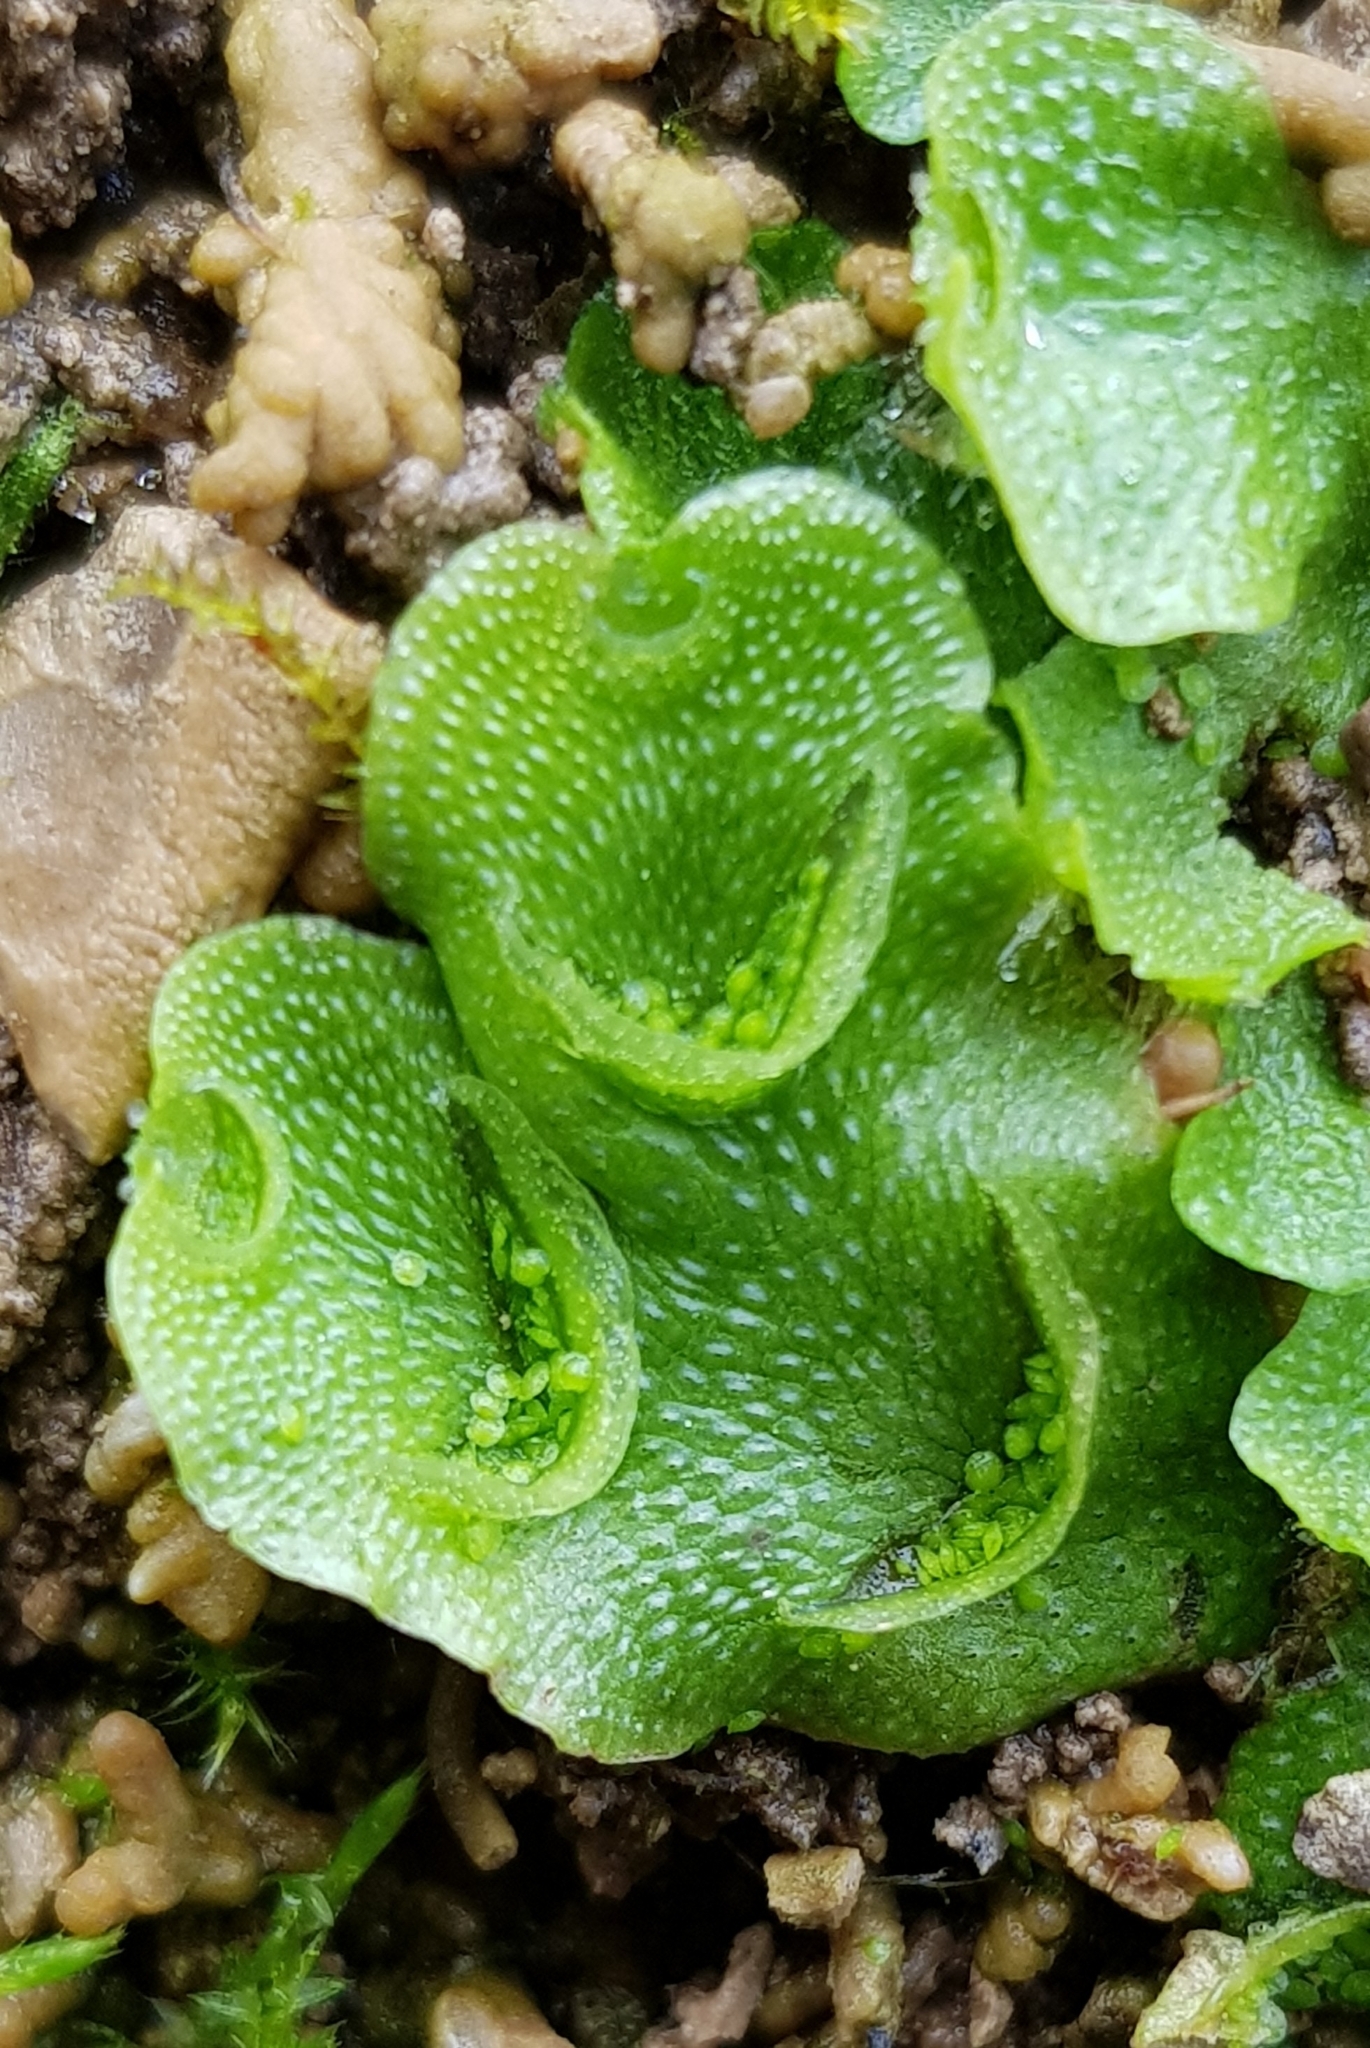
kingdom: Plantae
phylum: Marchantiophyta
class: Marchantiopsida
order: Lunulariales
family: Lunulariaceae
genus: Lunularia
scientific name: Lunularia cruciata
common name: Crescent-cup liverwort
